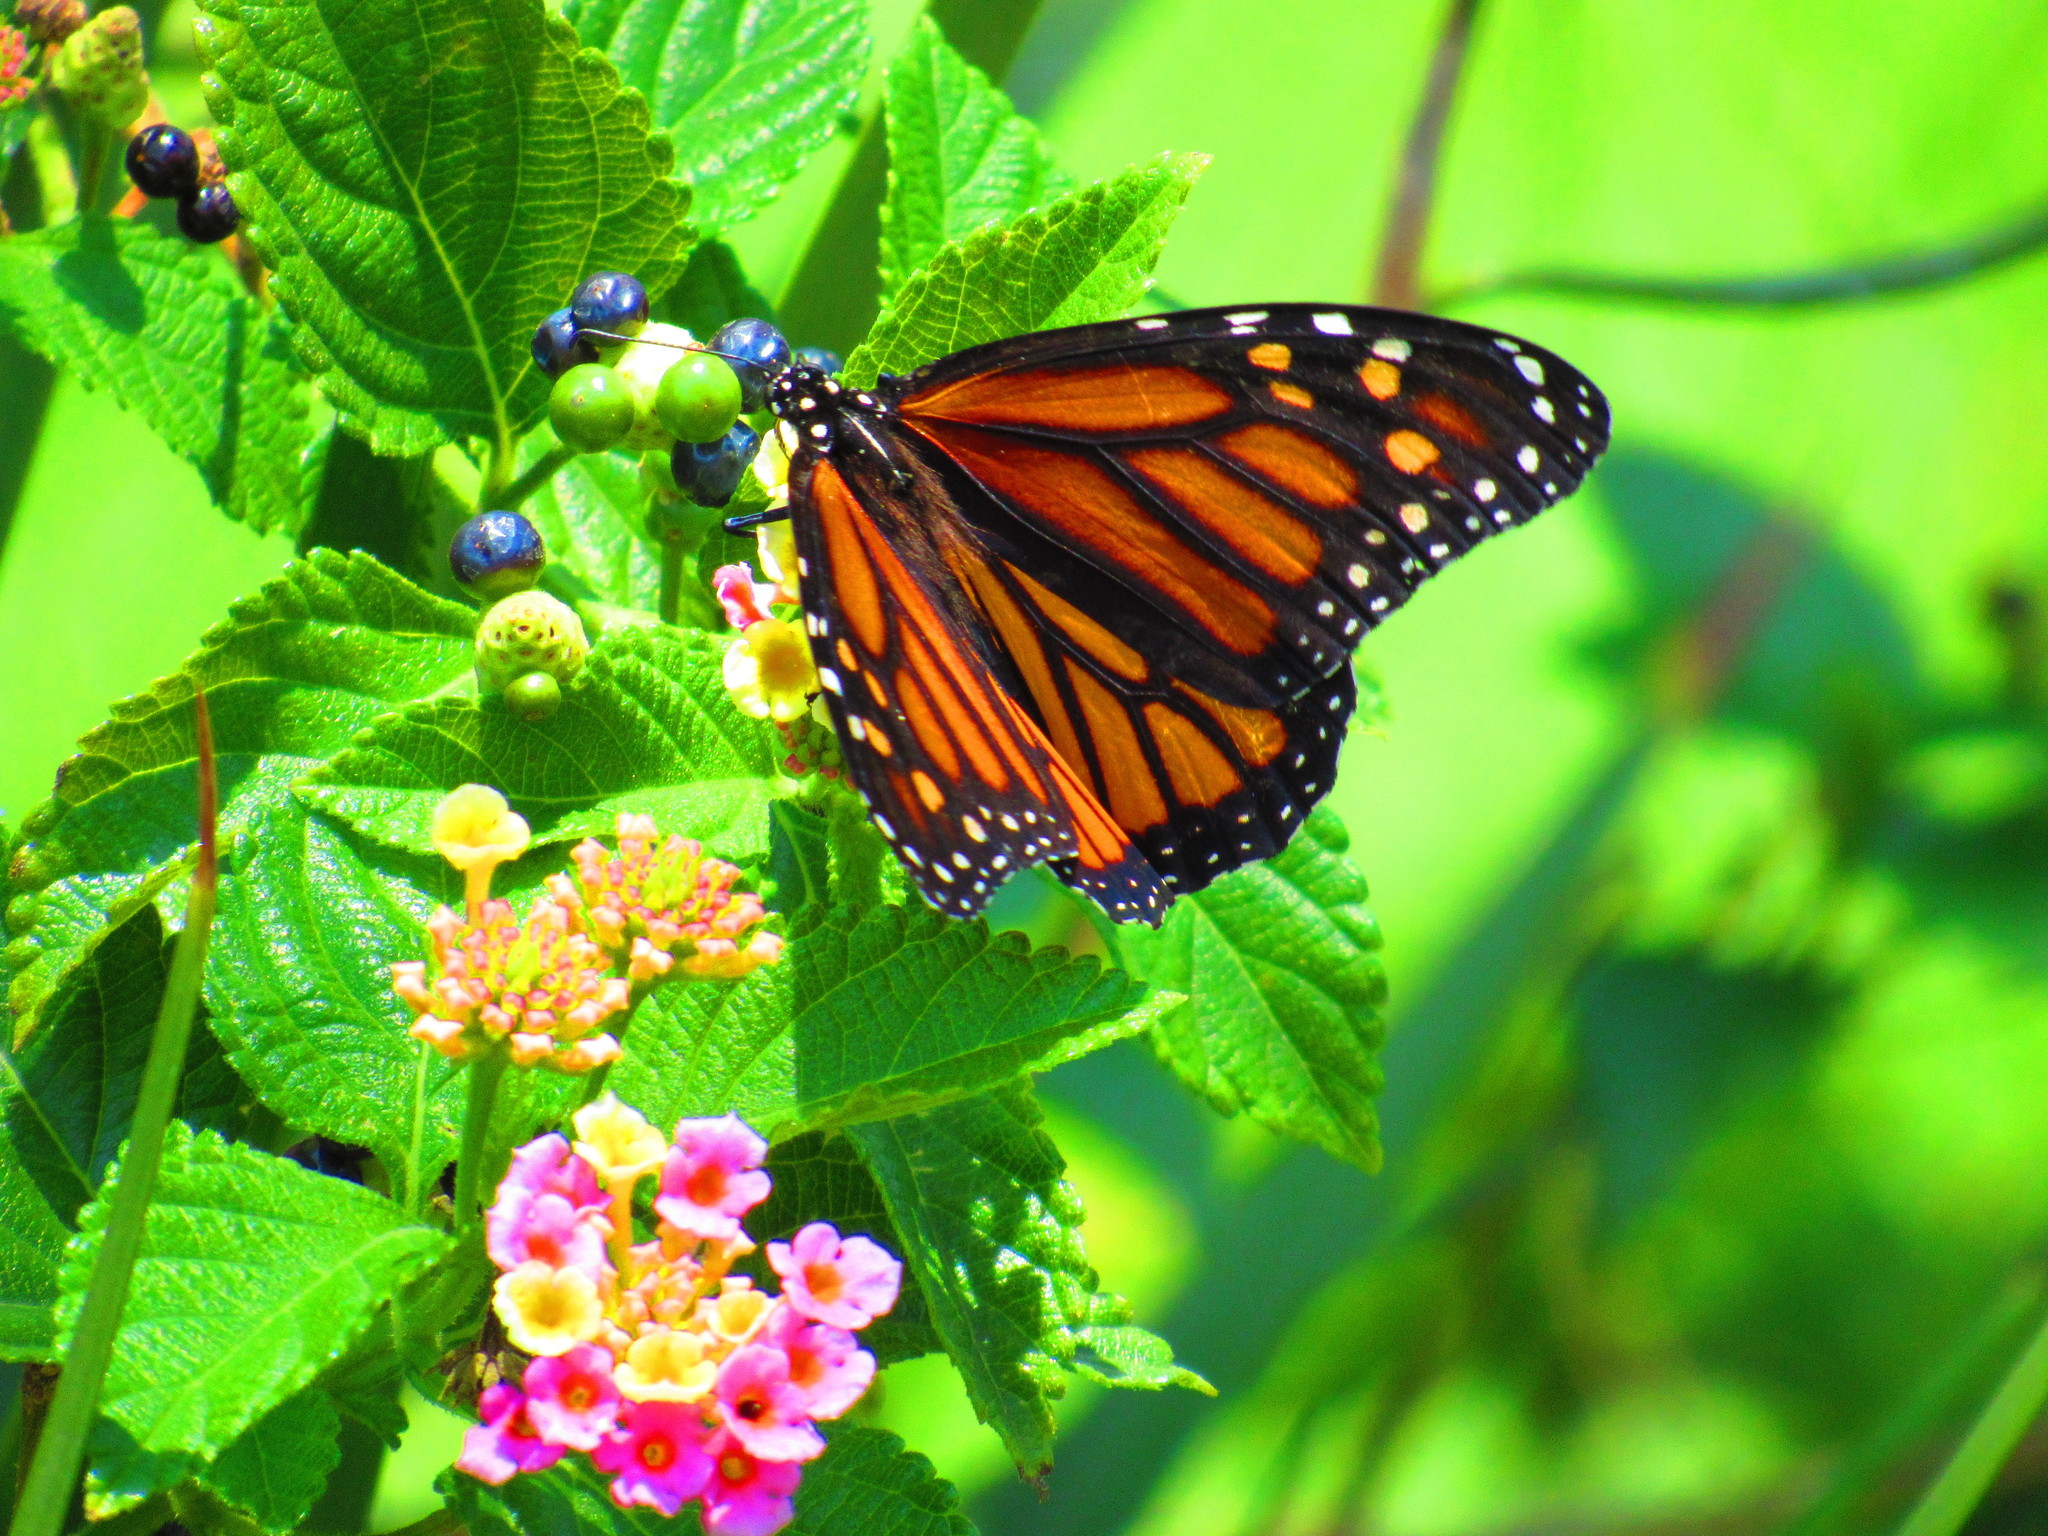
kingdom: Animalia
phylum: Arthropoda
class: Insecta
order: Lepidoptera
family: Nymphalidae
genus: Danaus
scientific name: Danaus plexippus
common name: Monarch
